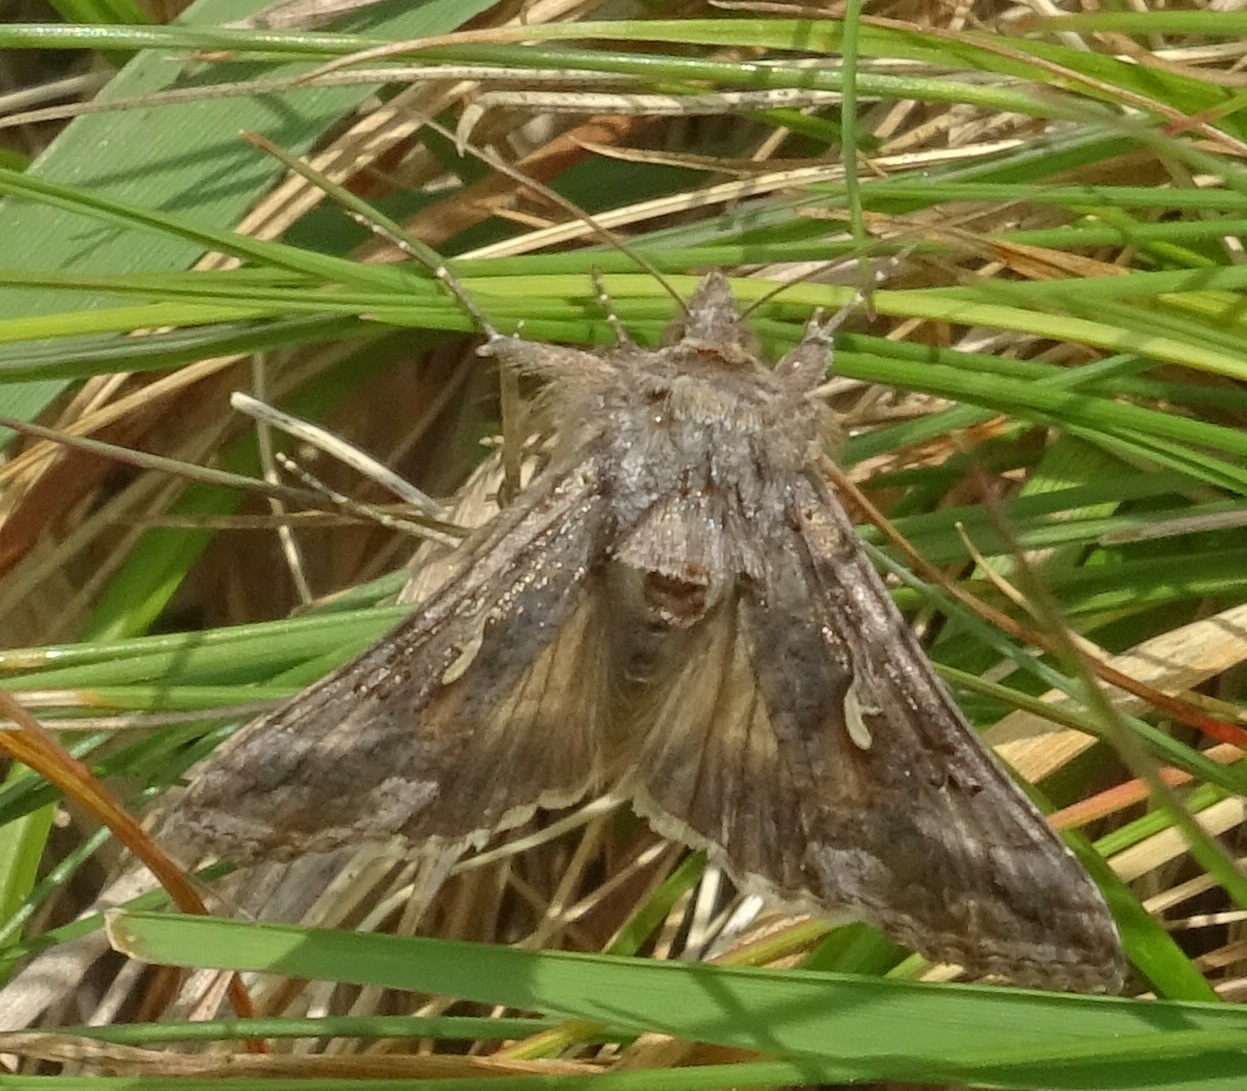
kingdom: Animalia
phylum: Arthropoda
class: Insecta
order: Lepidoptera
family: Noctuidae
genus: Autographa
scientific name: Autographa gamma
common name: Silver y
